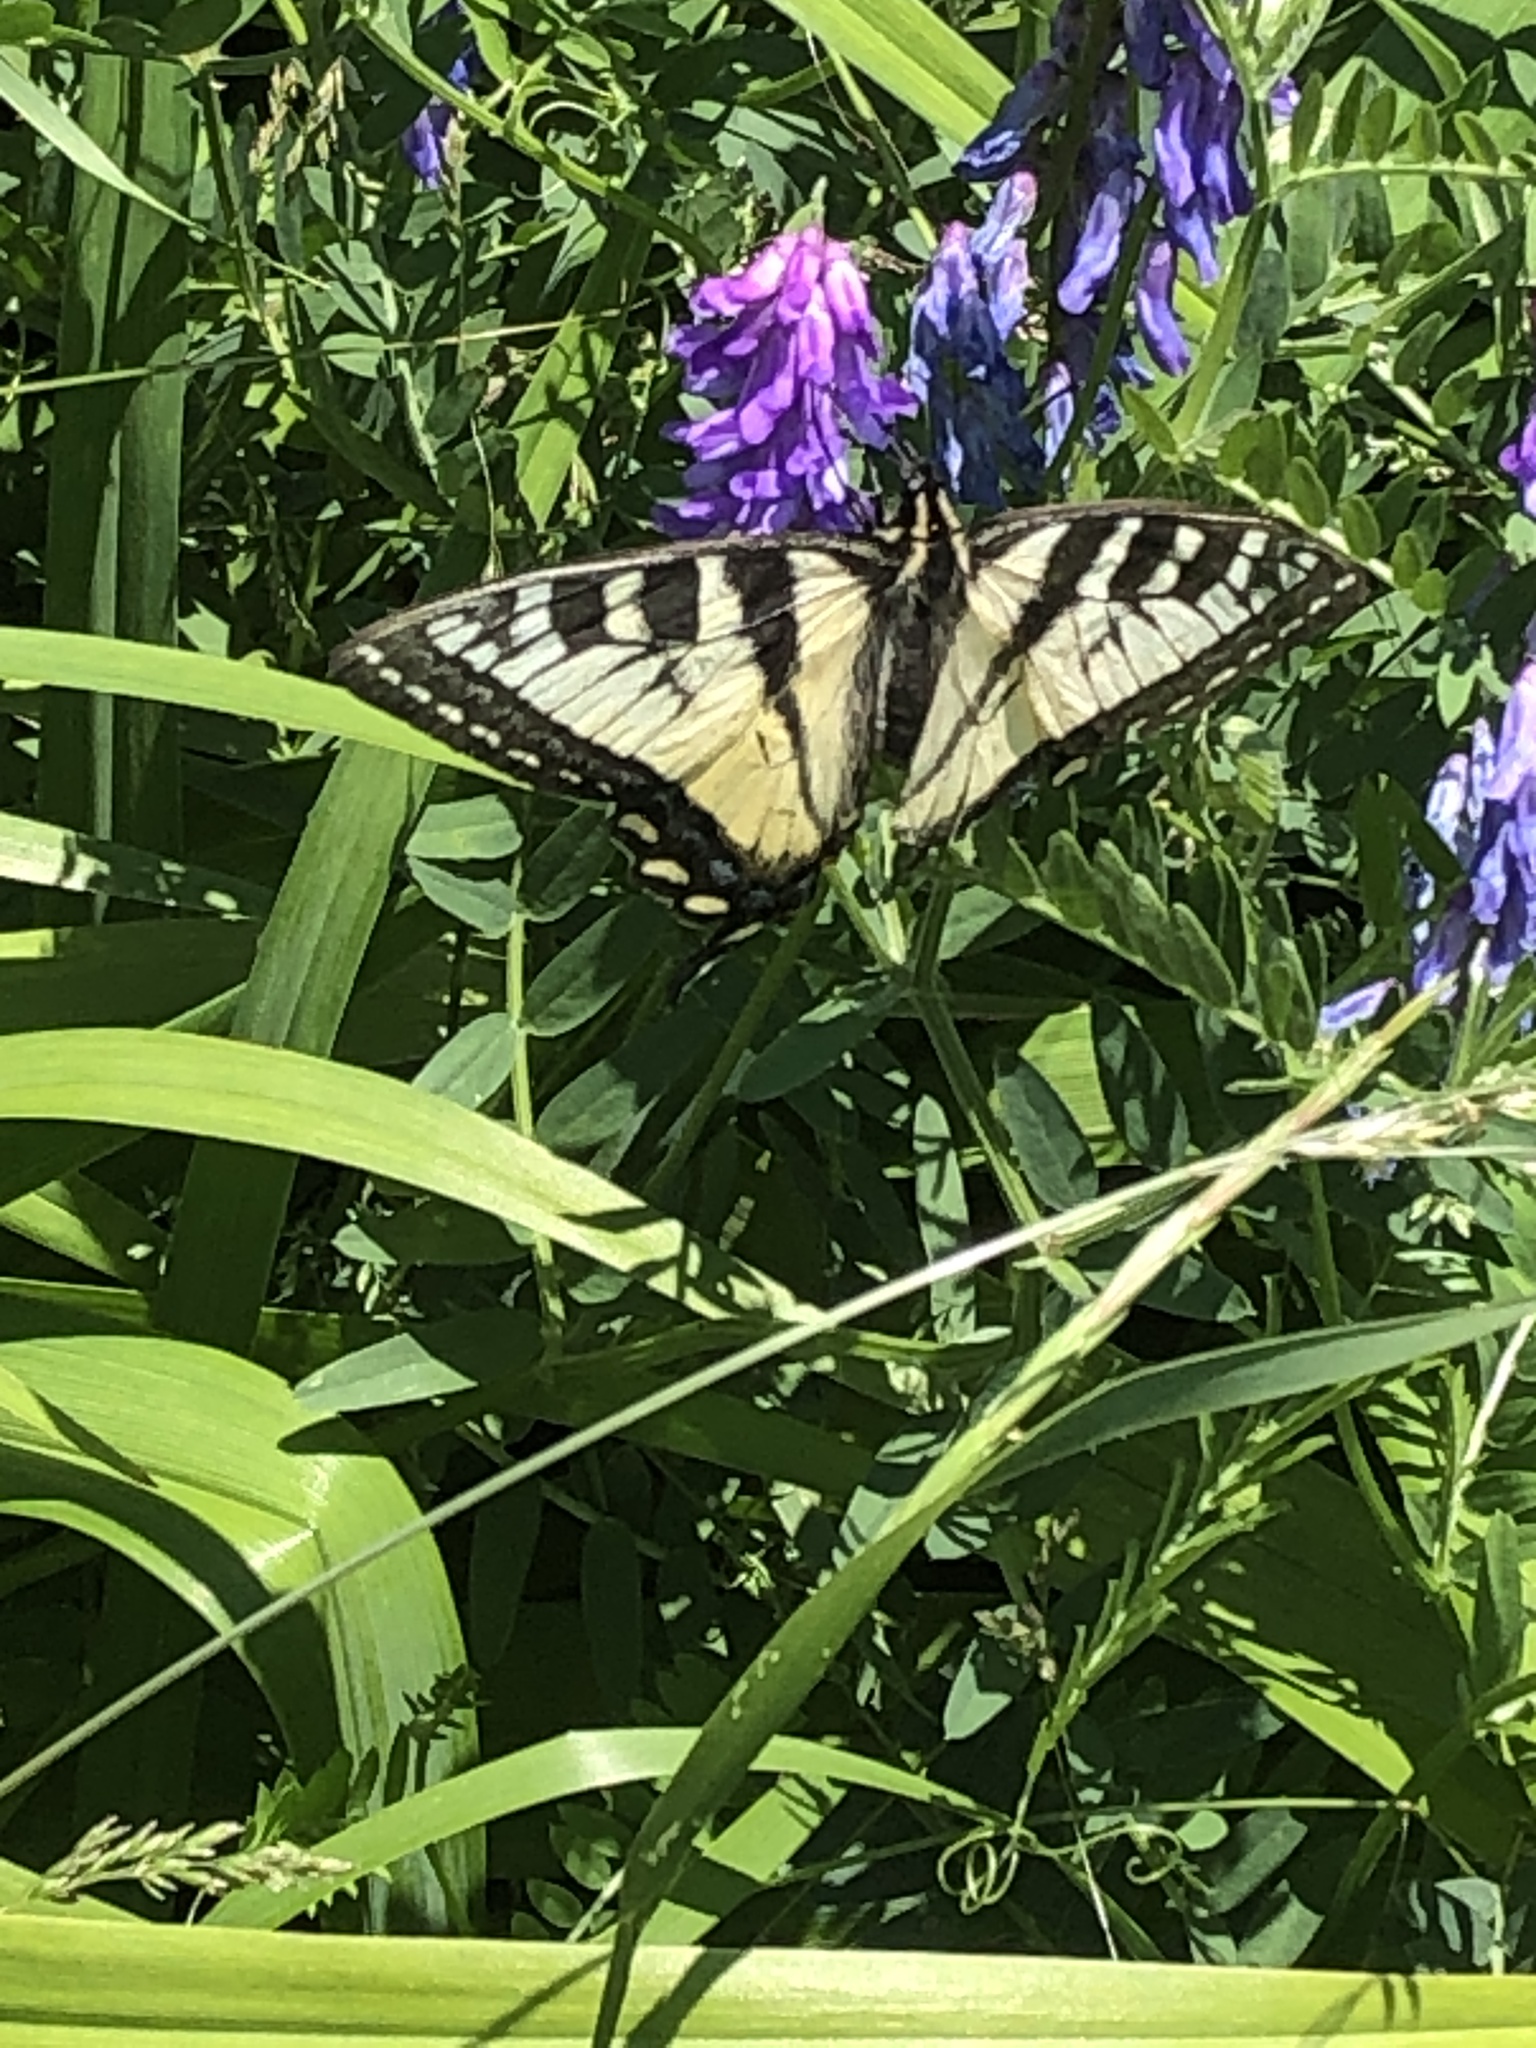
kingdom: Animalia
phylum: Arthropoda
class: Insecta
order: Lepidoptera
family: Papilionidae
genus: Papilio
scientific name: Papilio canadensis
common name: Canadian tiger swallowtail
